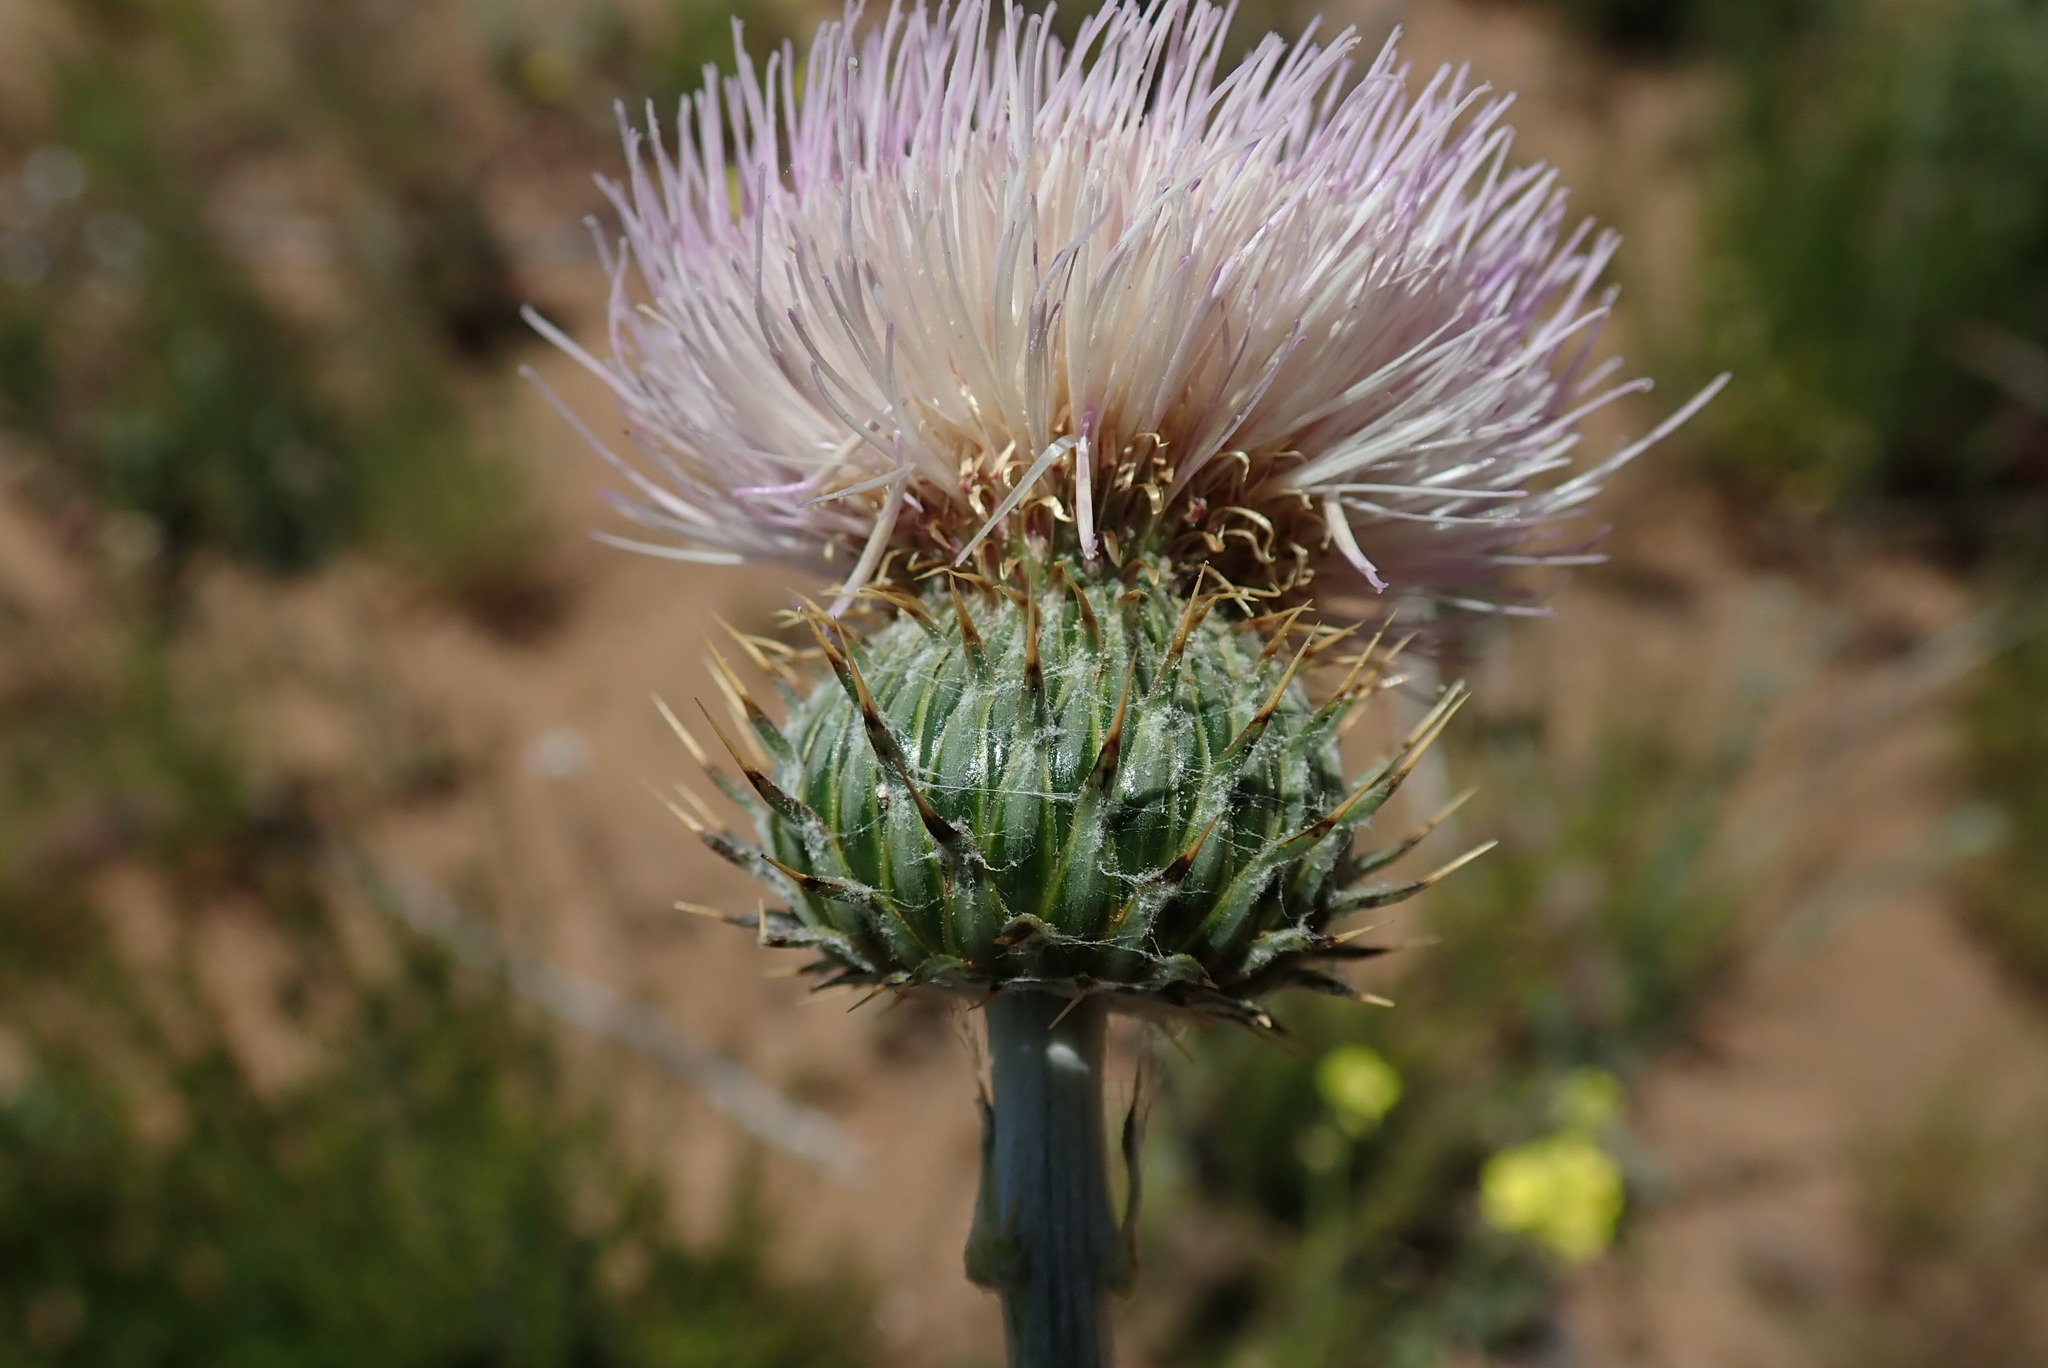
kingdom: Plantae
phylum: Tracheophyta
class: Magnoliopsida
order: Asterales
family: Asteraceae
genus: Cirsium
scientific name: Cirsium occidentale
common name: Western thistle
